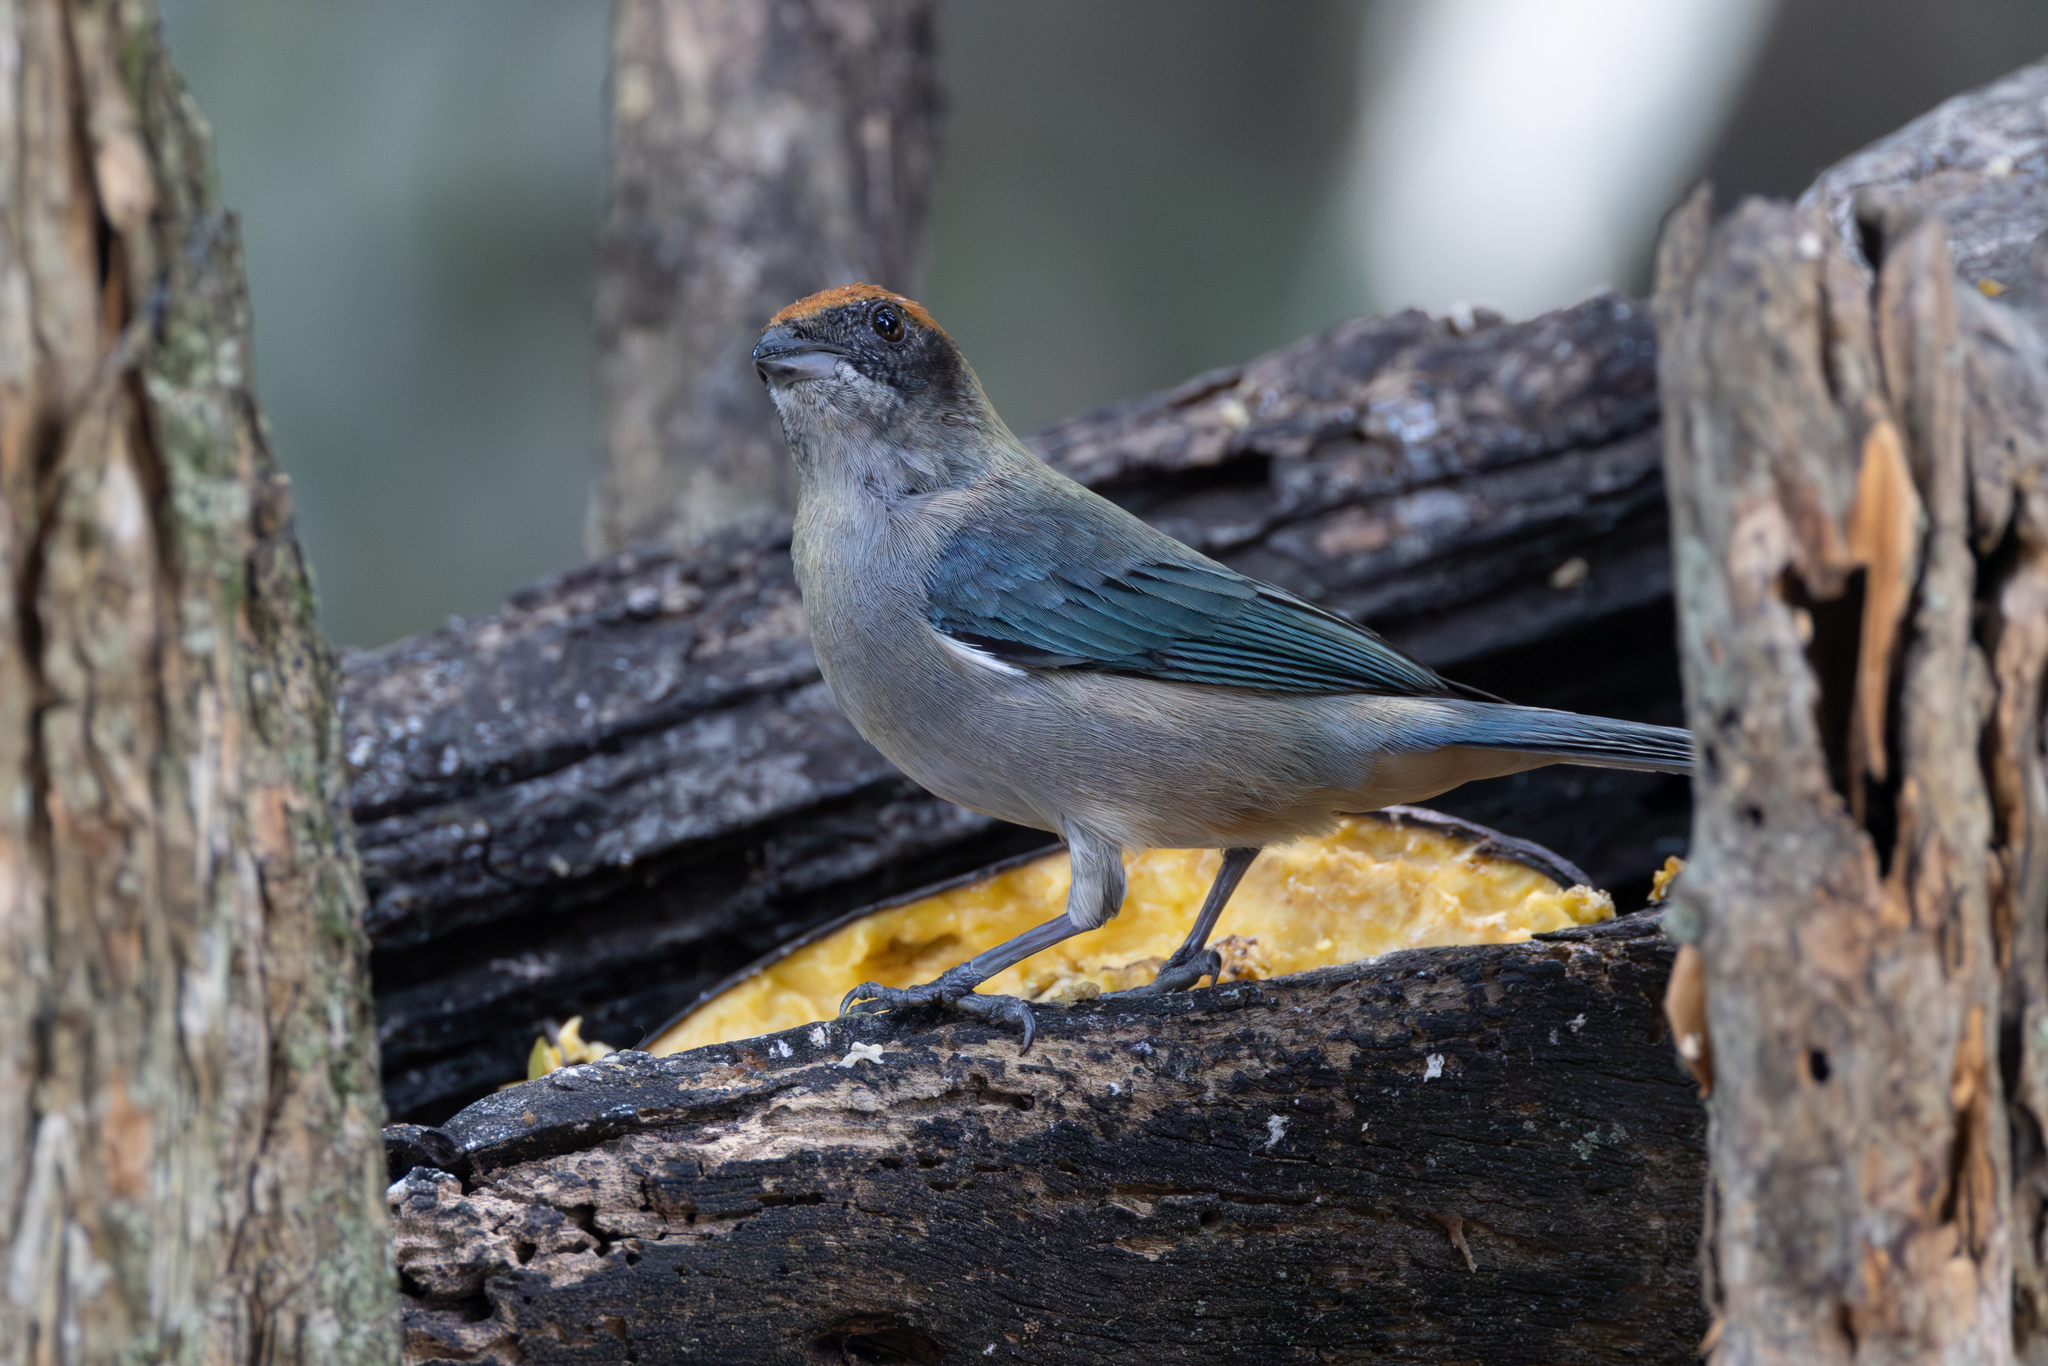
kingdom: Animalia
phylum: Chordata
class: Aves
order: Passeriformes
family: Thraupidae
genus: Stilpnia
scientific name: Stilpnia vitriolina
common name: Scrub tanager
